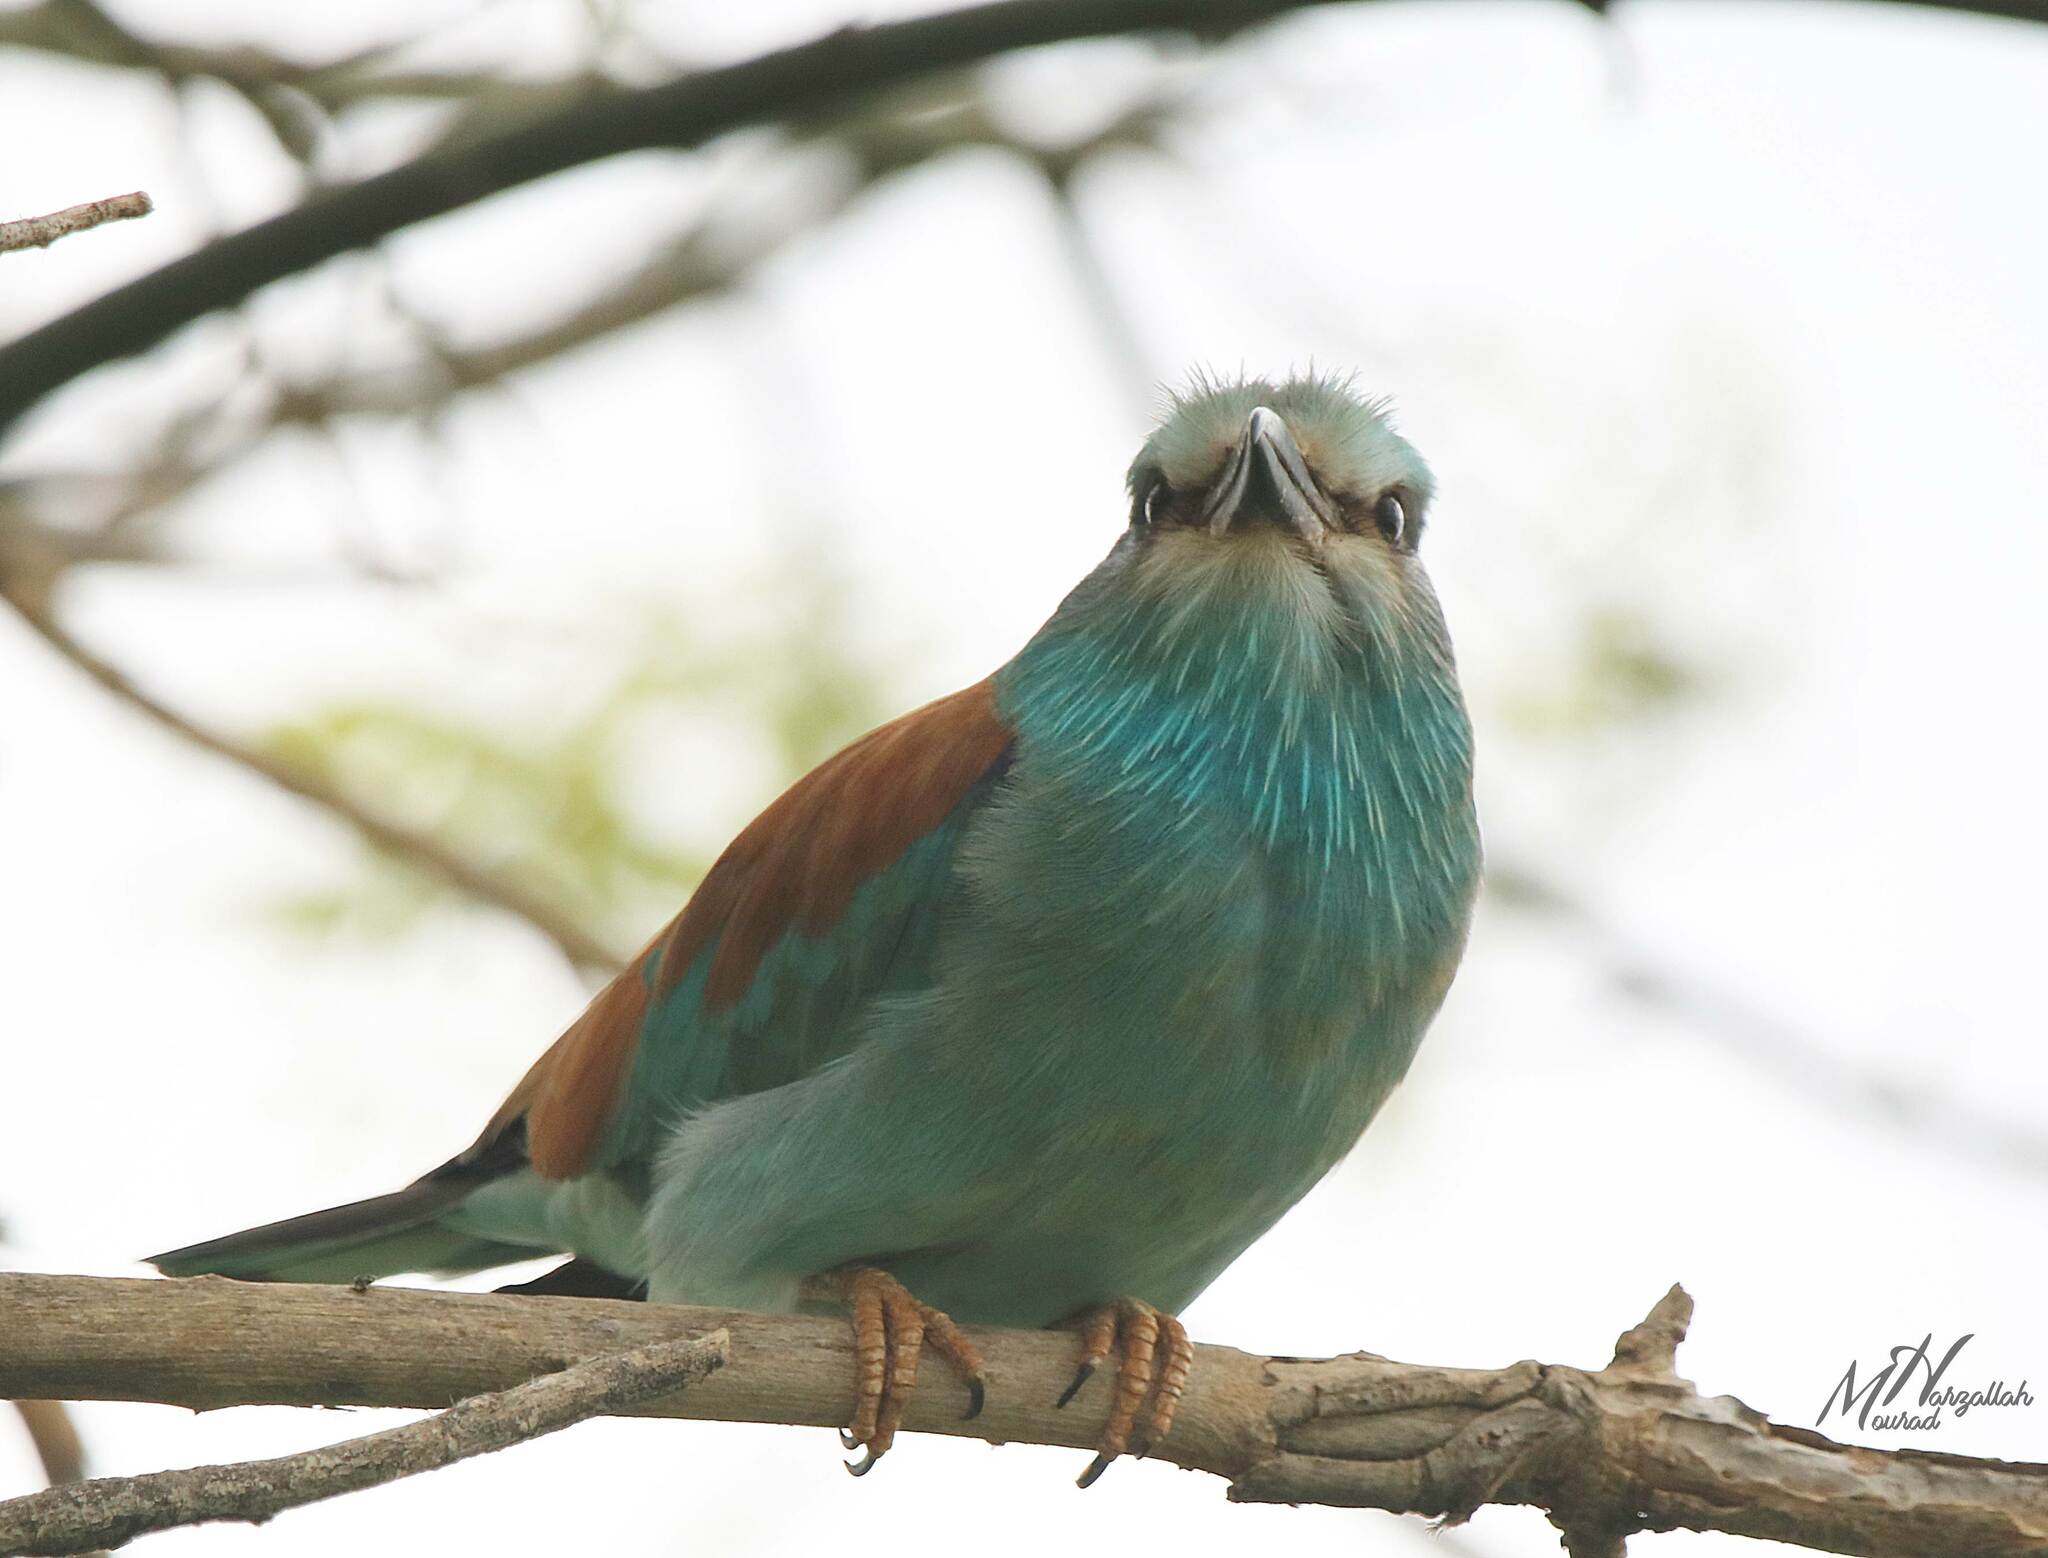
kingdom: Animalia
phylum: Chordata
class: Aves
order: Coraciiformes
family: Coraciidae
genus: Coracias
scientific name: Coracias garrulus
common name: European roller
